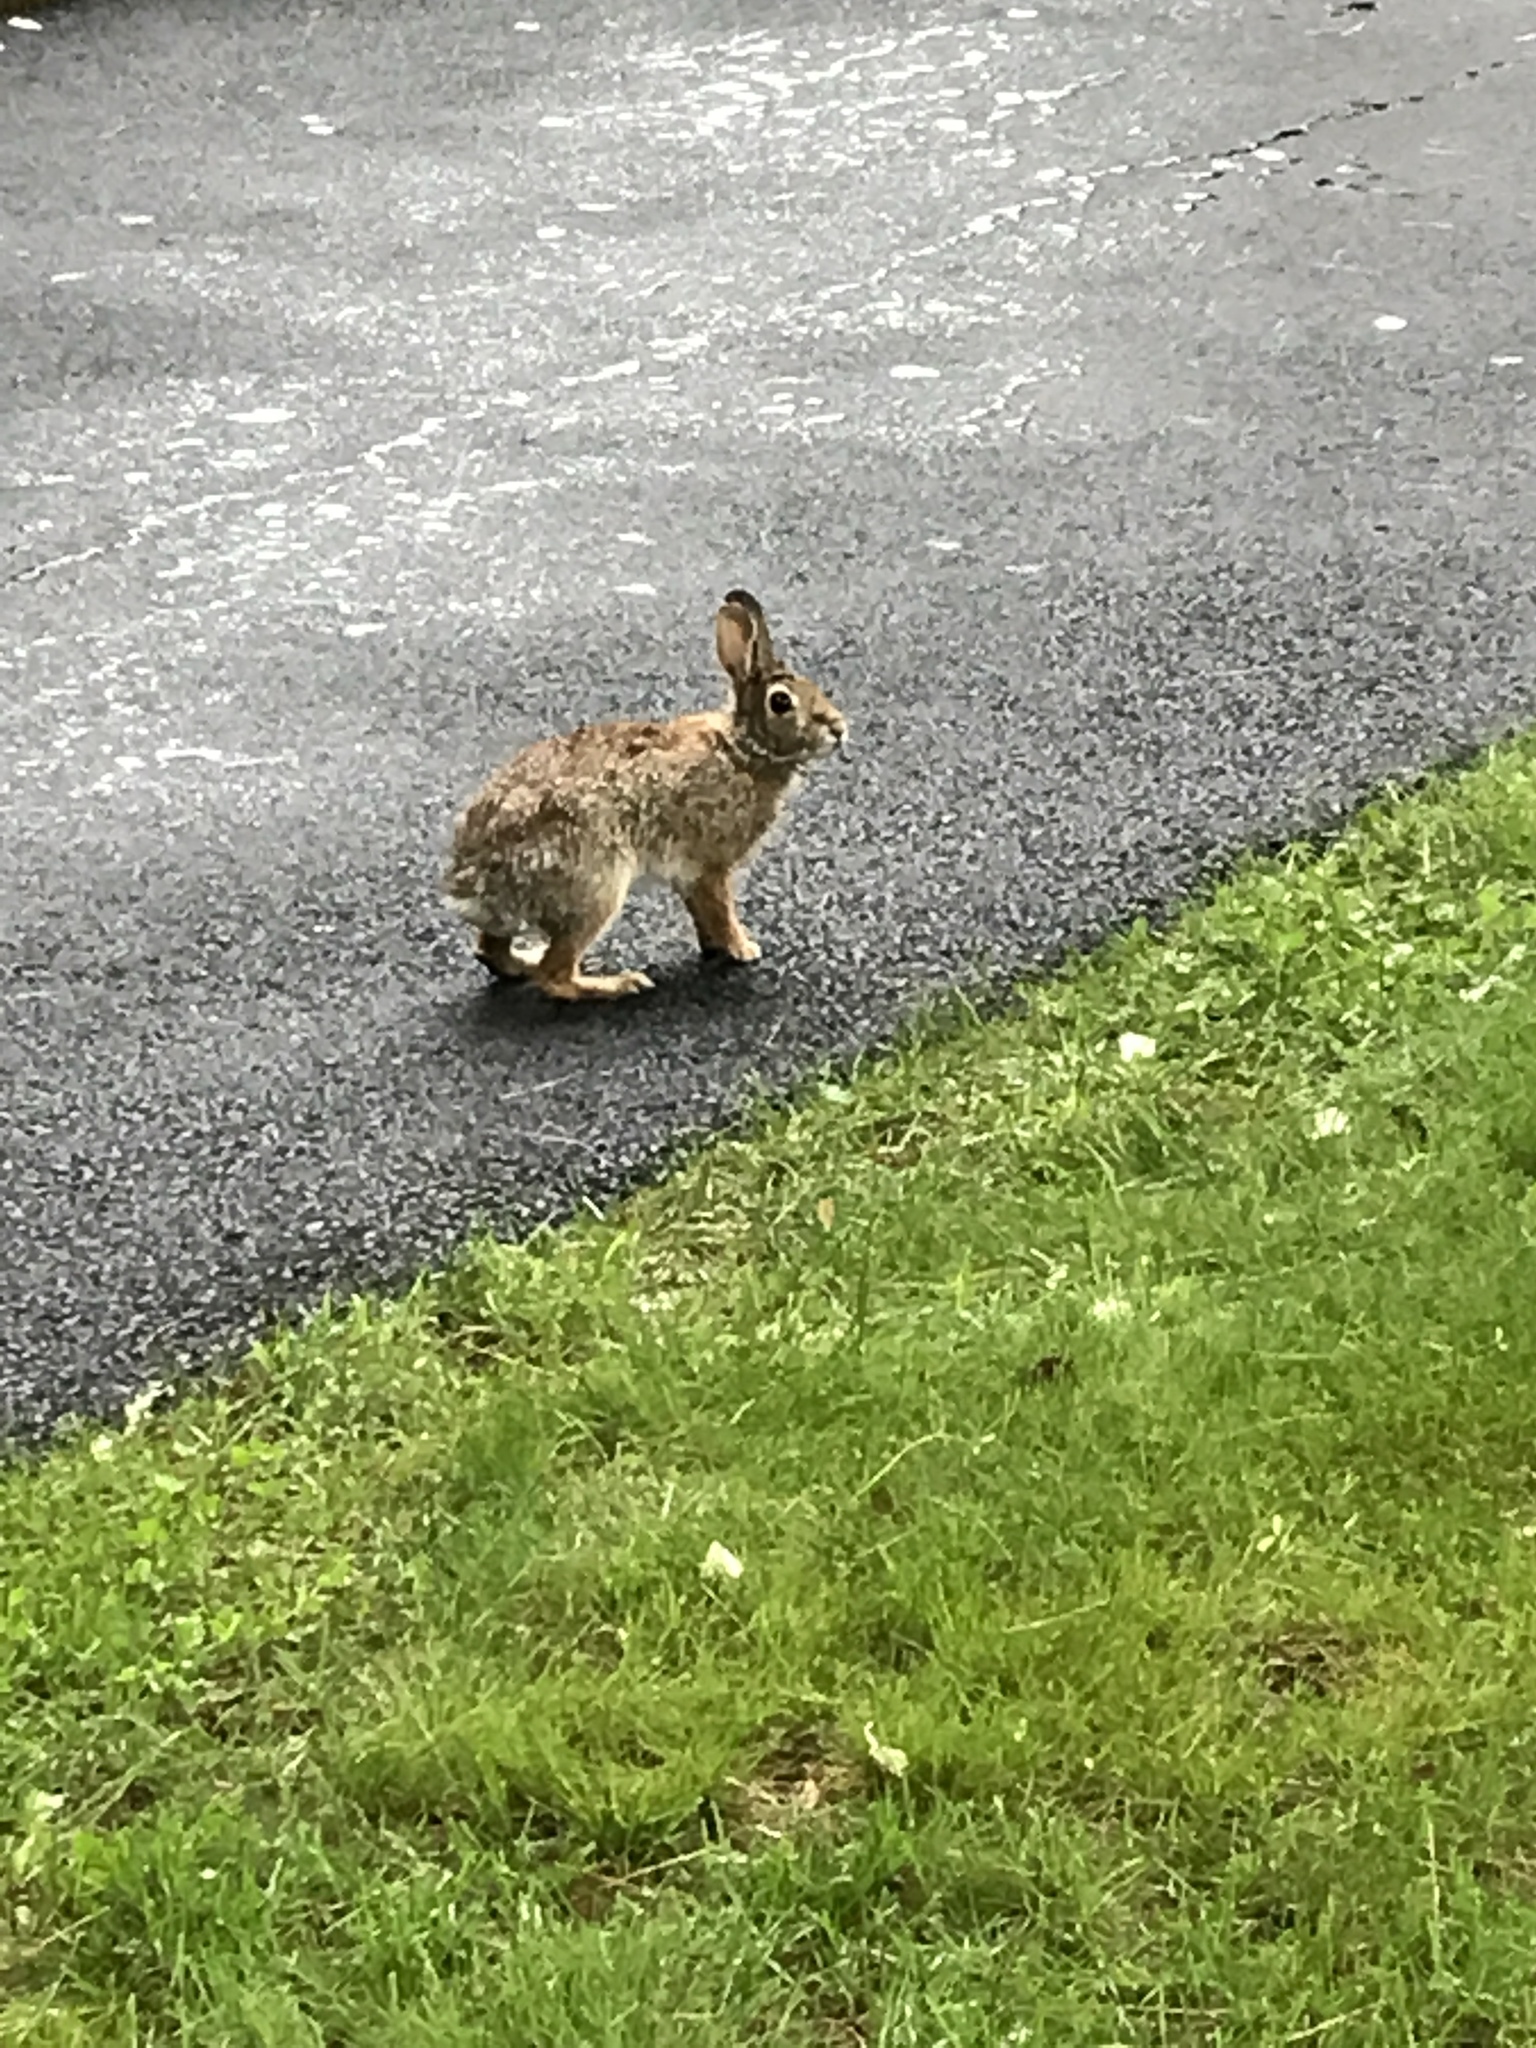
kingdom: Animalia
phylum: Chordata
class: Mammalia
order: Lagomorpha
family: Leporidae
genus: Sylvilagus
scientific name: Sylvilagus floridanus
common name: Eastern cottontail
